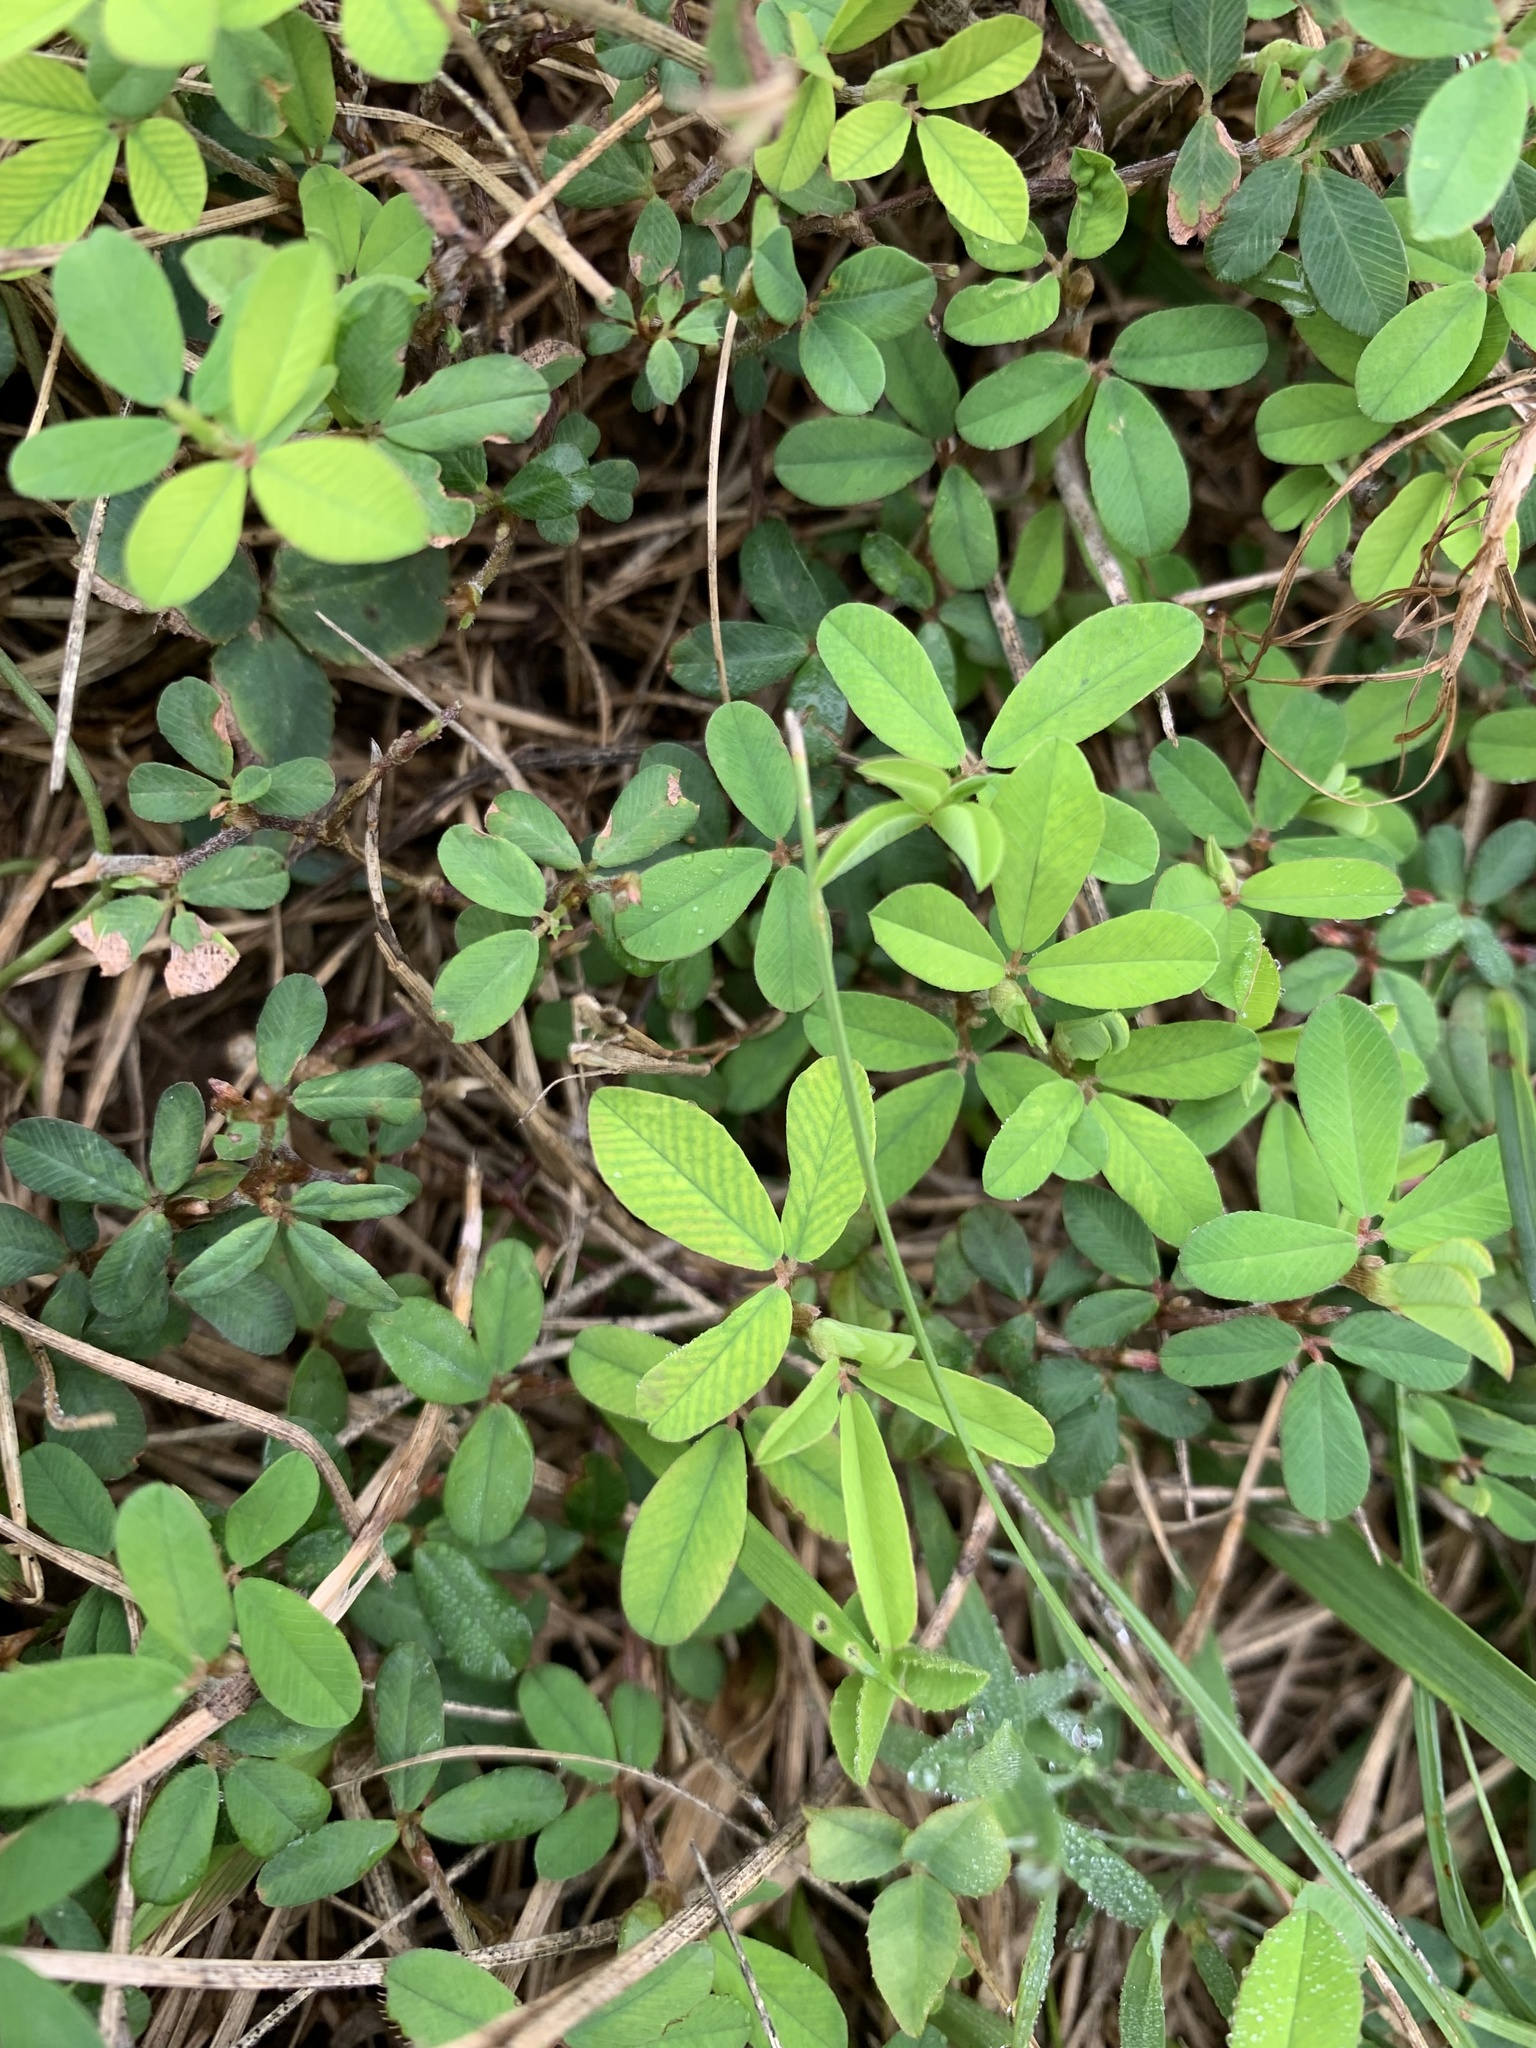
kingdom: Plantae
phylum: Tracheophyta
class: Magnoliopsida
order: Fabales
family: Fabaceae
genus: Kummerowia
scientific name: Kummerowia striata
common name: Japanese clover
